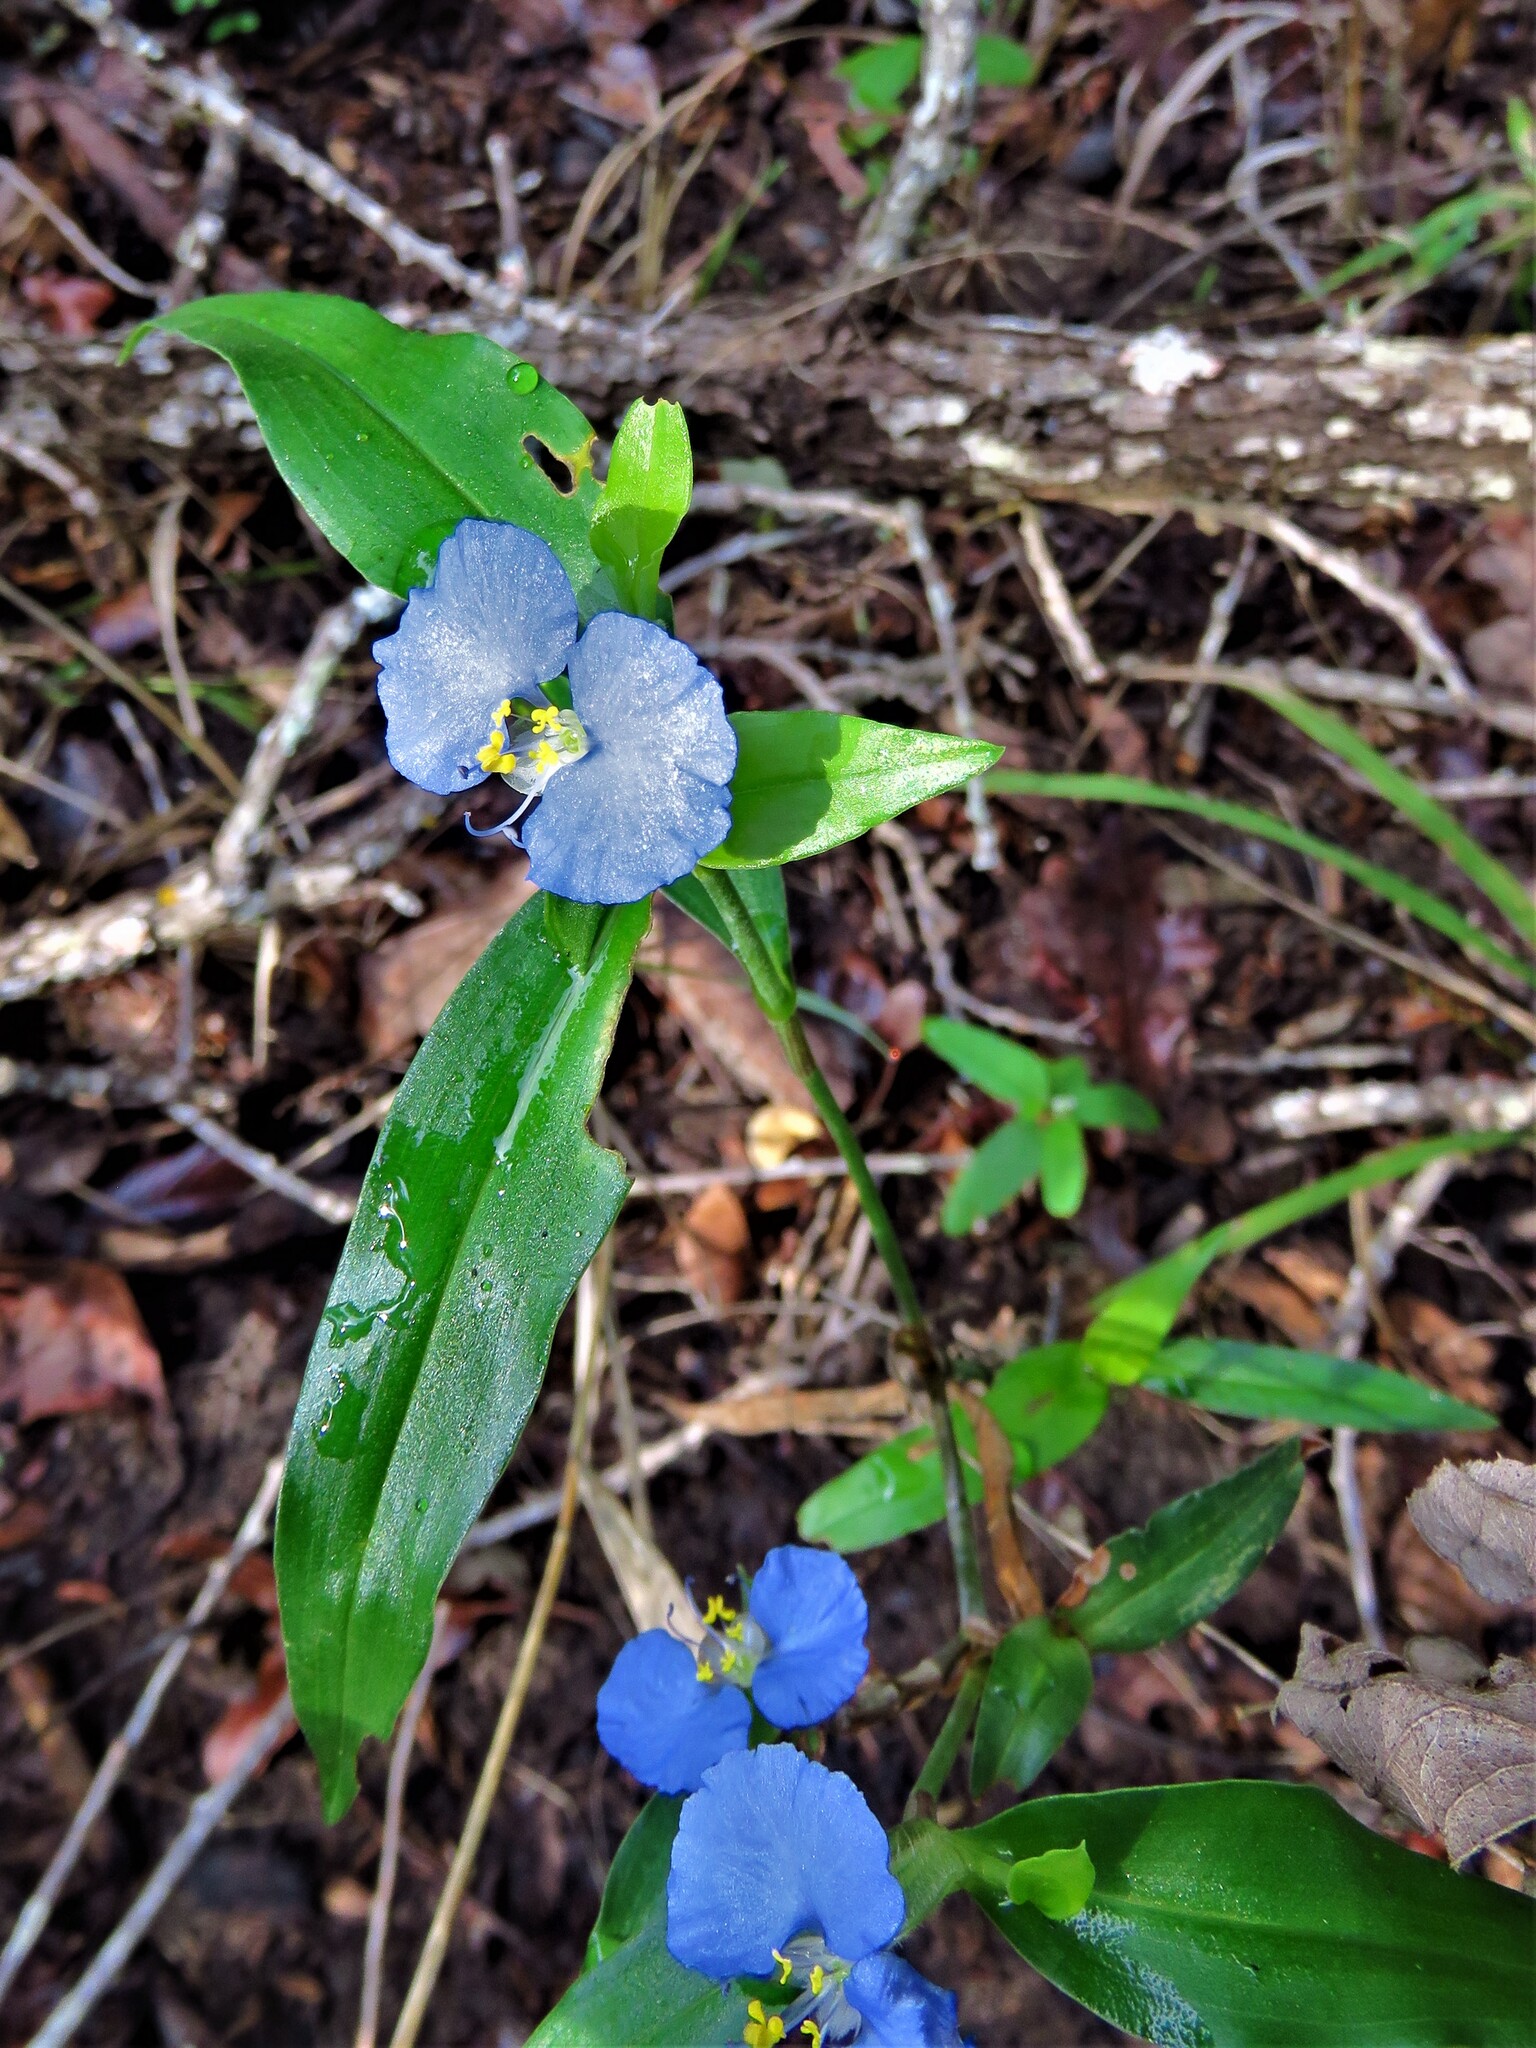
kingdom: Plantae
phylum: Tracheophyta
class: Liliopsida
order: Commelinales
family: Commelinaceae
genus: Commelina
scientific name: Commelina erecta
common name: Blousel blommetjie
